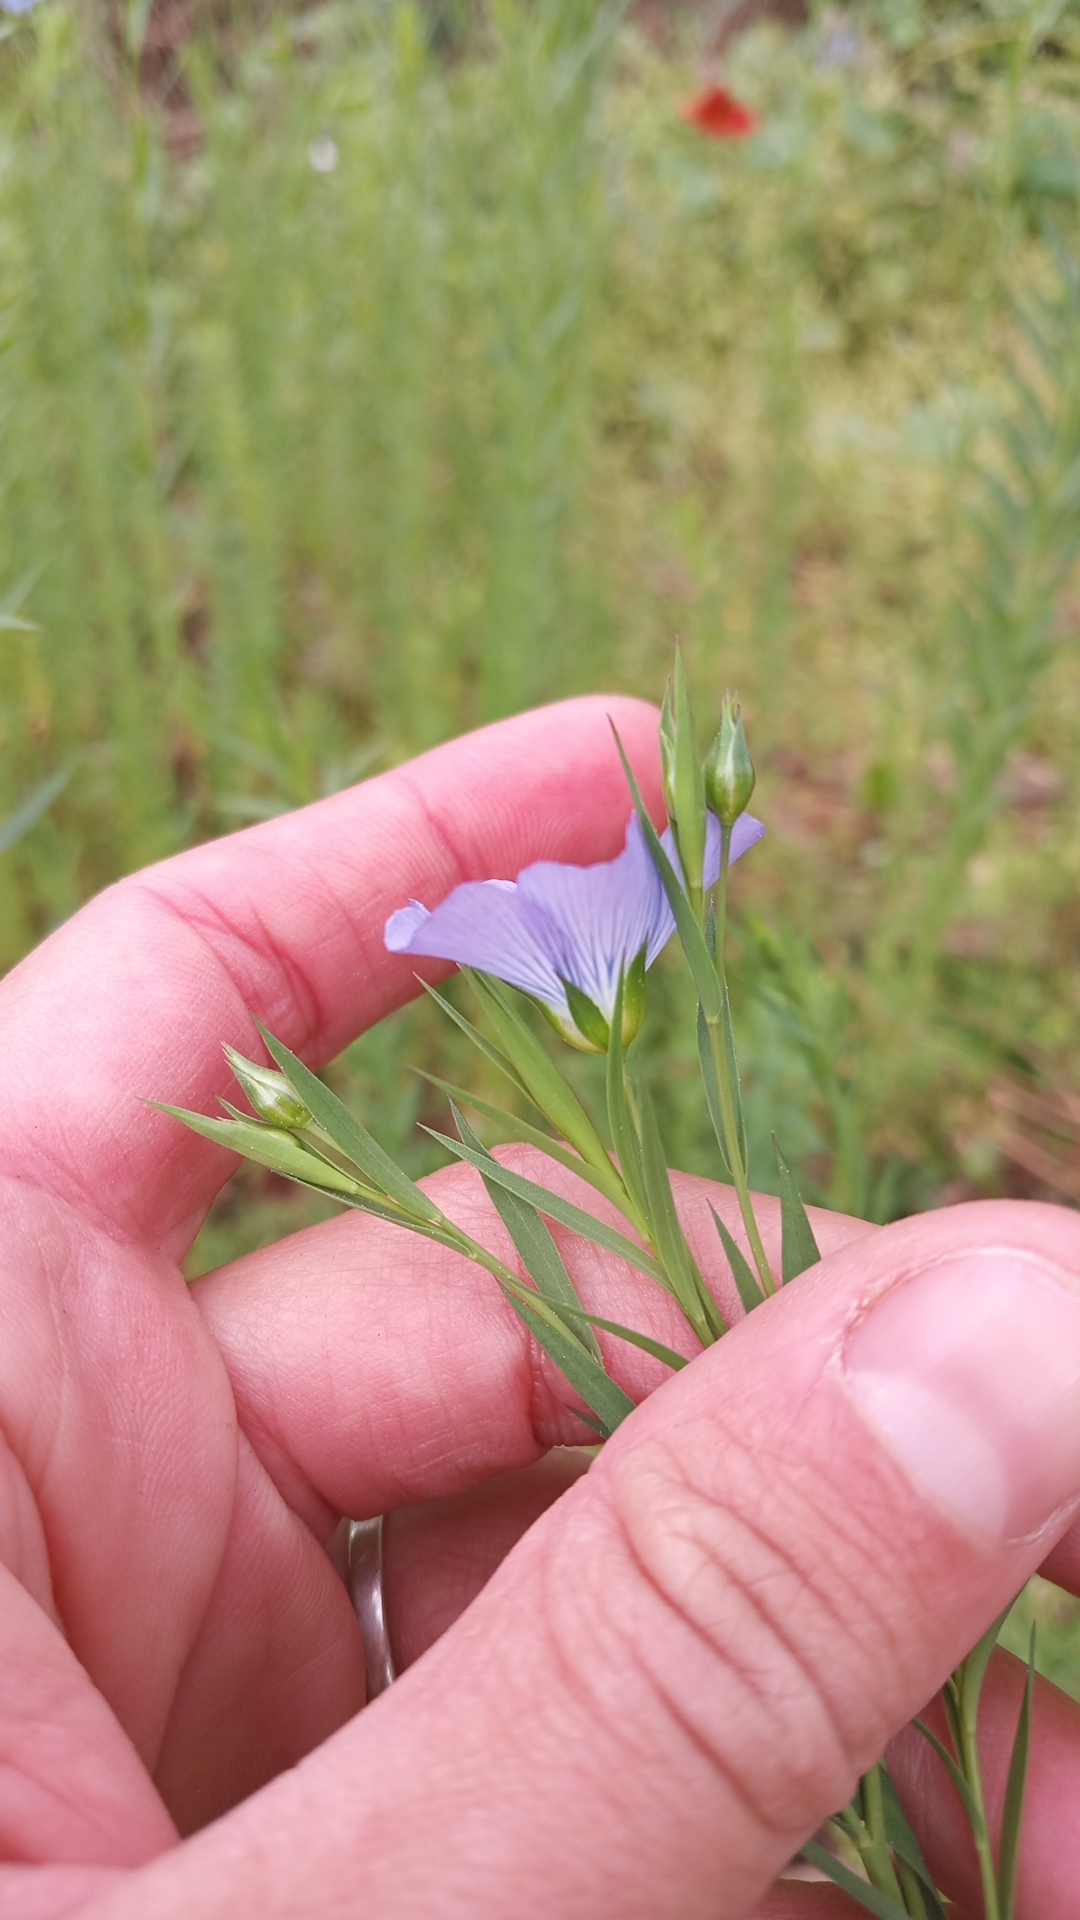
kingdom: Plantae
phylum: Tracheophyta
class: Magnoliopsida
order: Malpighiales
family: Linaceae
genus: Linum
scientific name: Linum usitatissimum
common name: Flax
